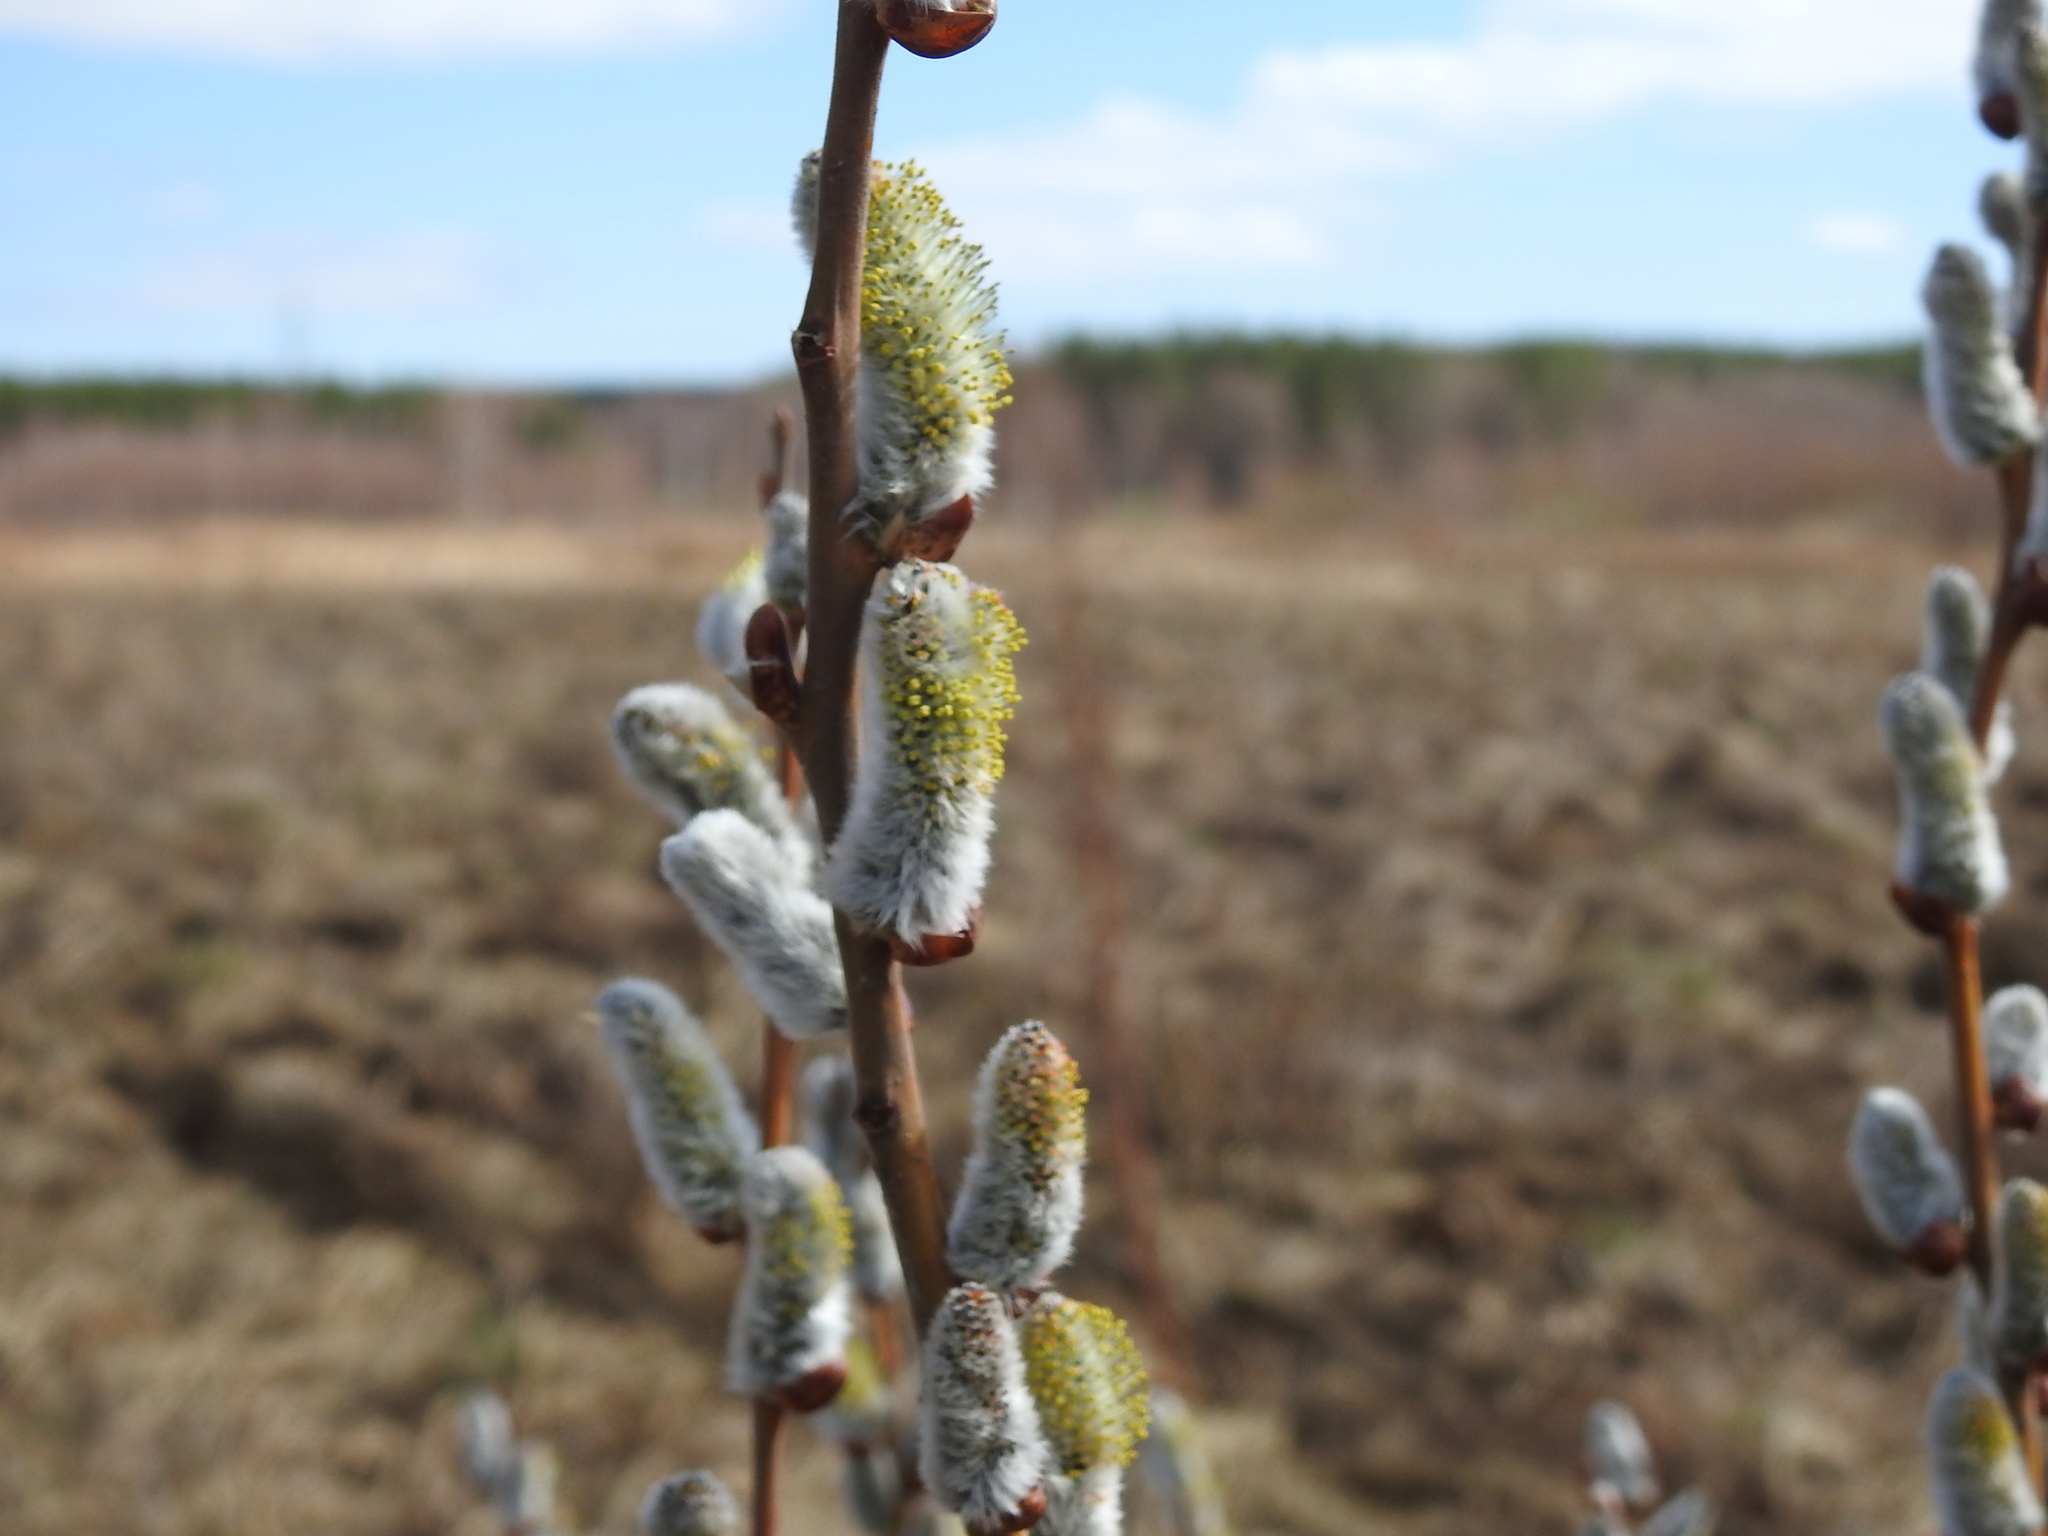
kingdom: Plantae
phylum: Tracheophyta
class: Magnoliopsida
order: Malpighiales
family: Salicaceae
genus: Salix
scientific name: Salix
